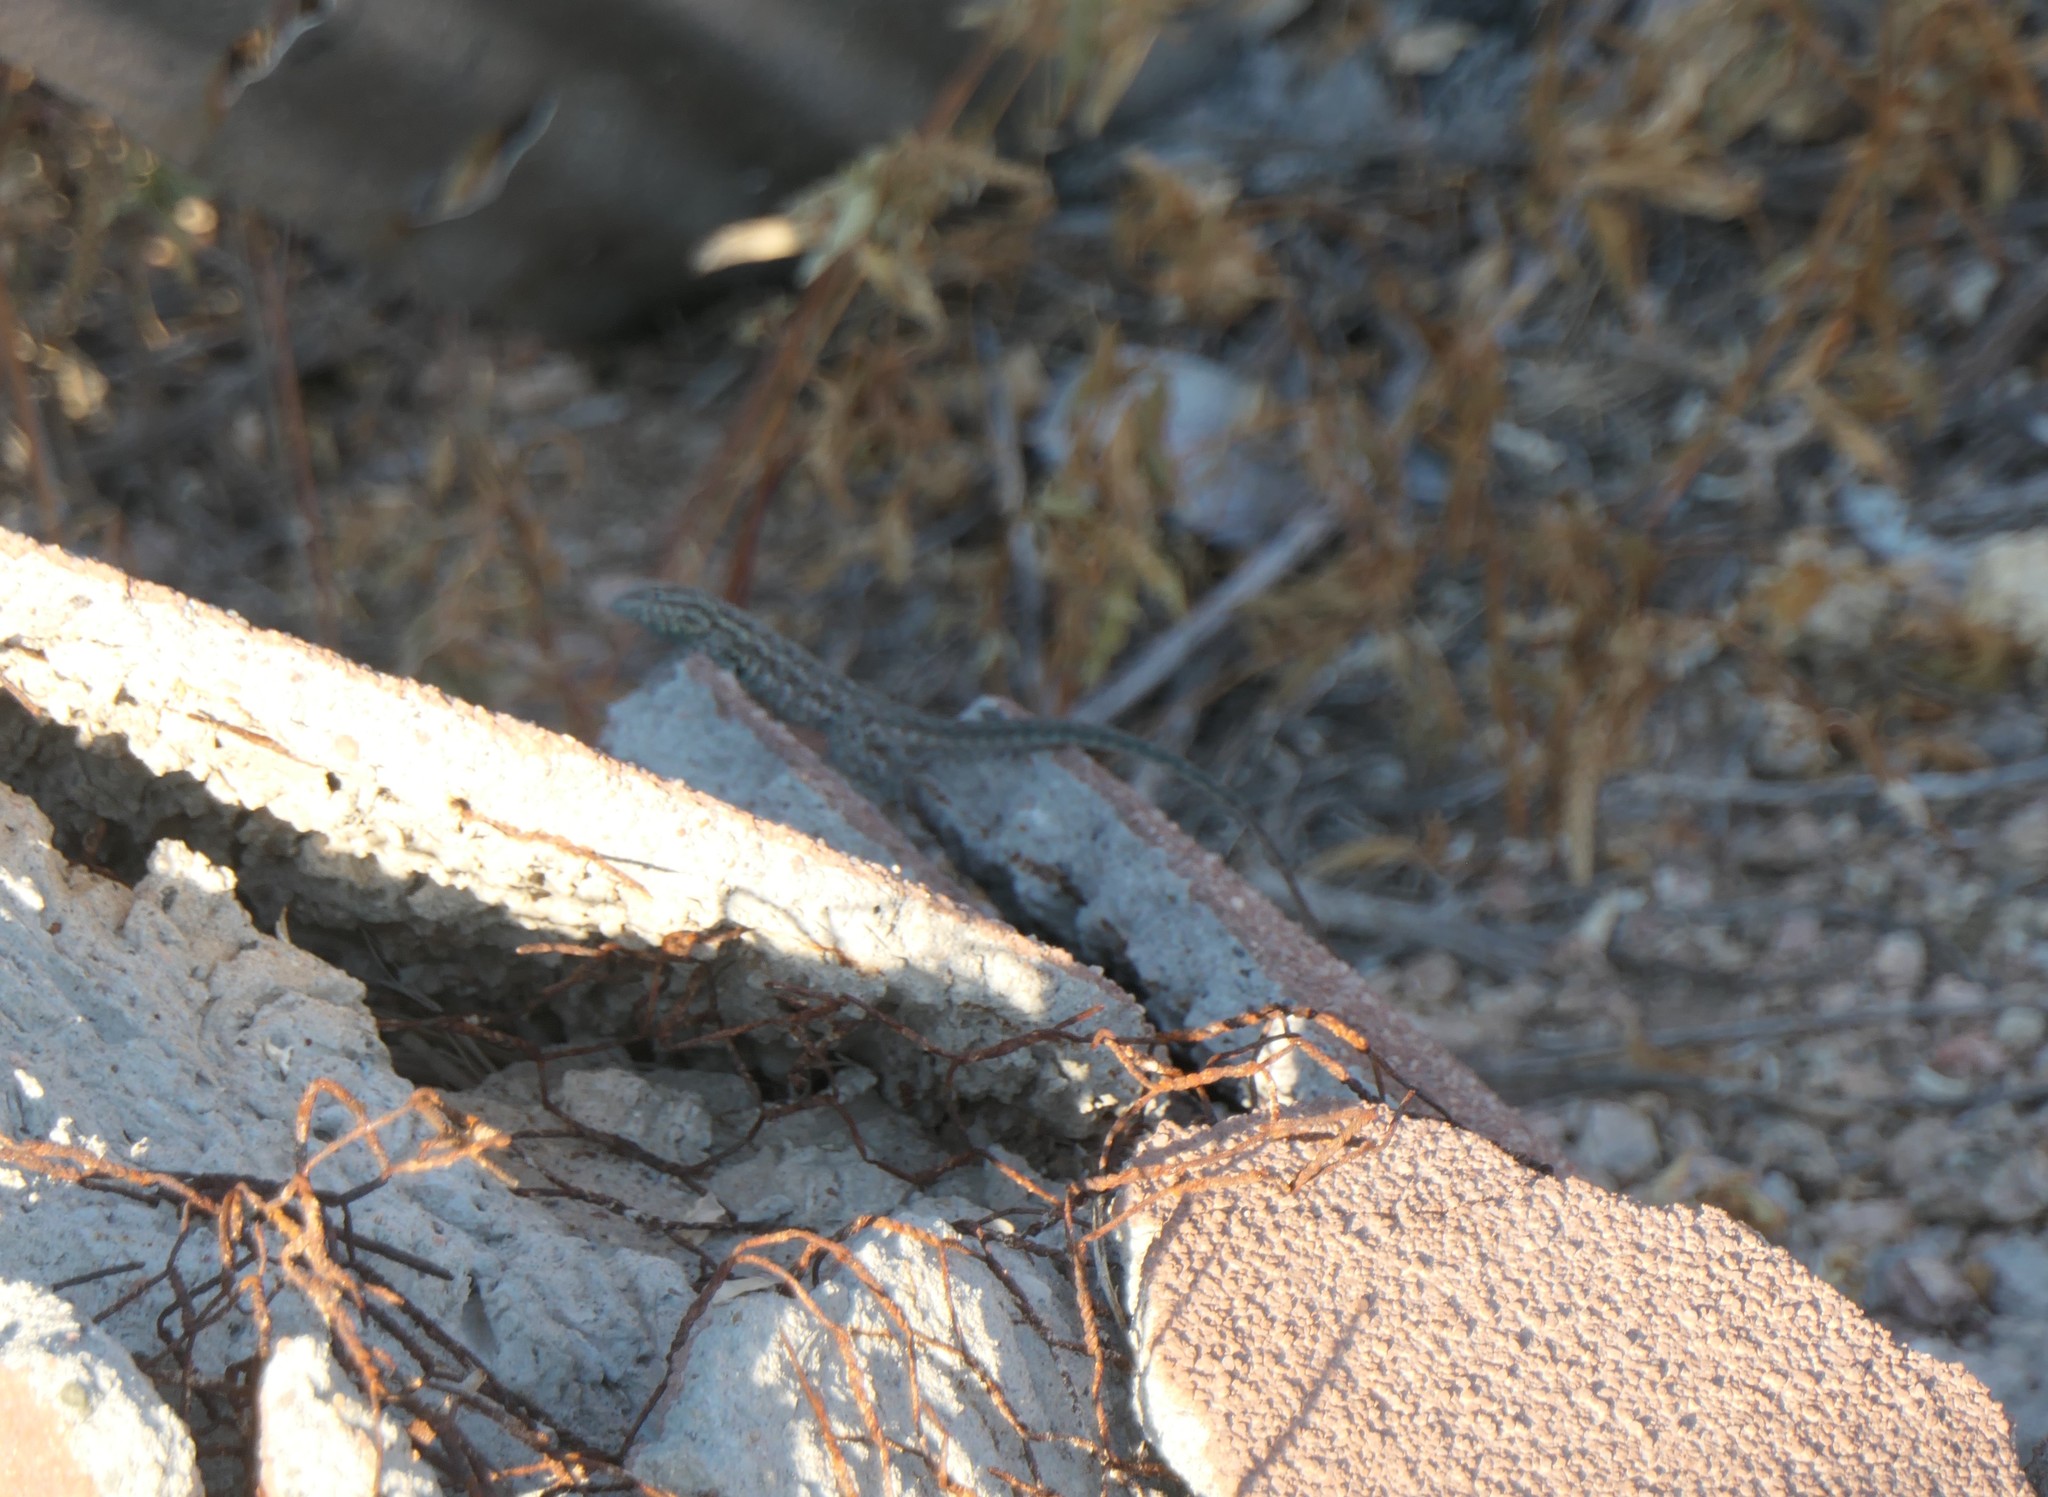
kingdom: Animalia
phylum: Chordata
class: Squamata
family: Phrynosomatidae
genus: Uta
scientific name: Uta stansburiana
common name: Side-blotched lizard
